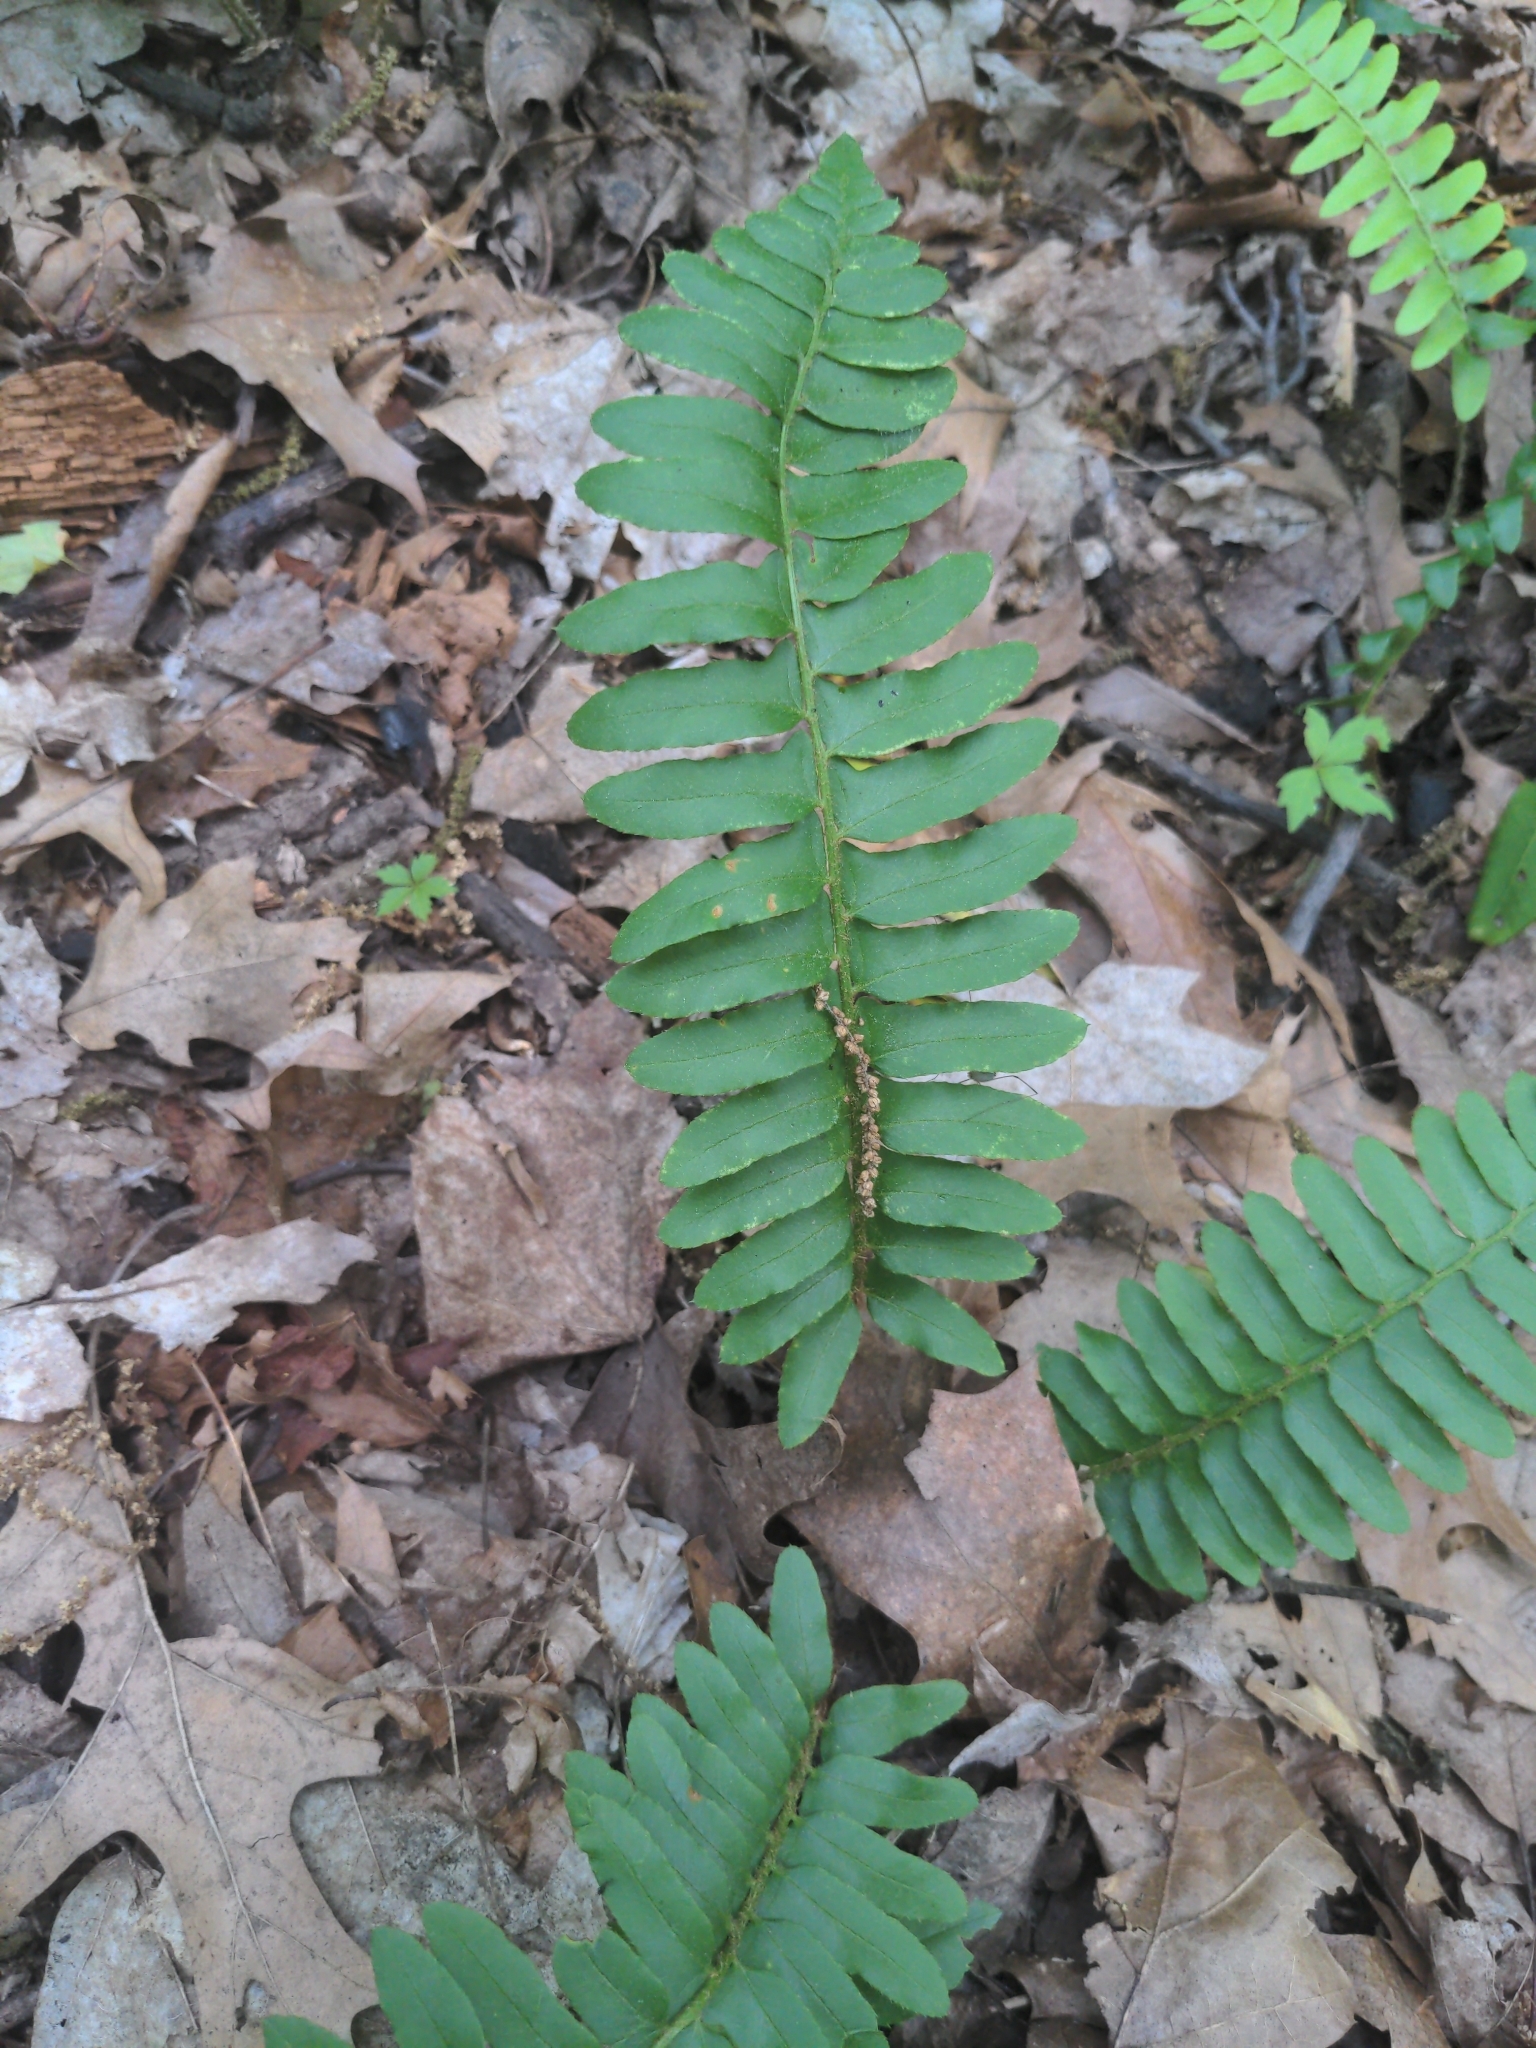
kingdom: Plantae
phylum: Tracheophyta
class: Polypodiopsida
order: Polypodiales
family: Dryopteridaceae
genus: Polystichum
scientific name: Polystichum acrostichoides
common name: Christmas fern
